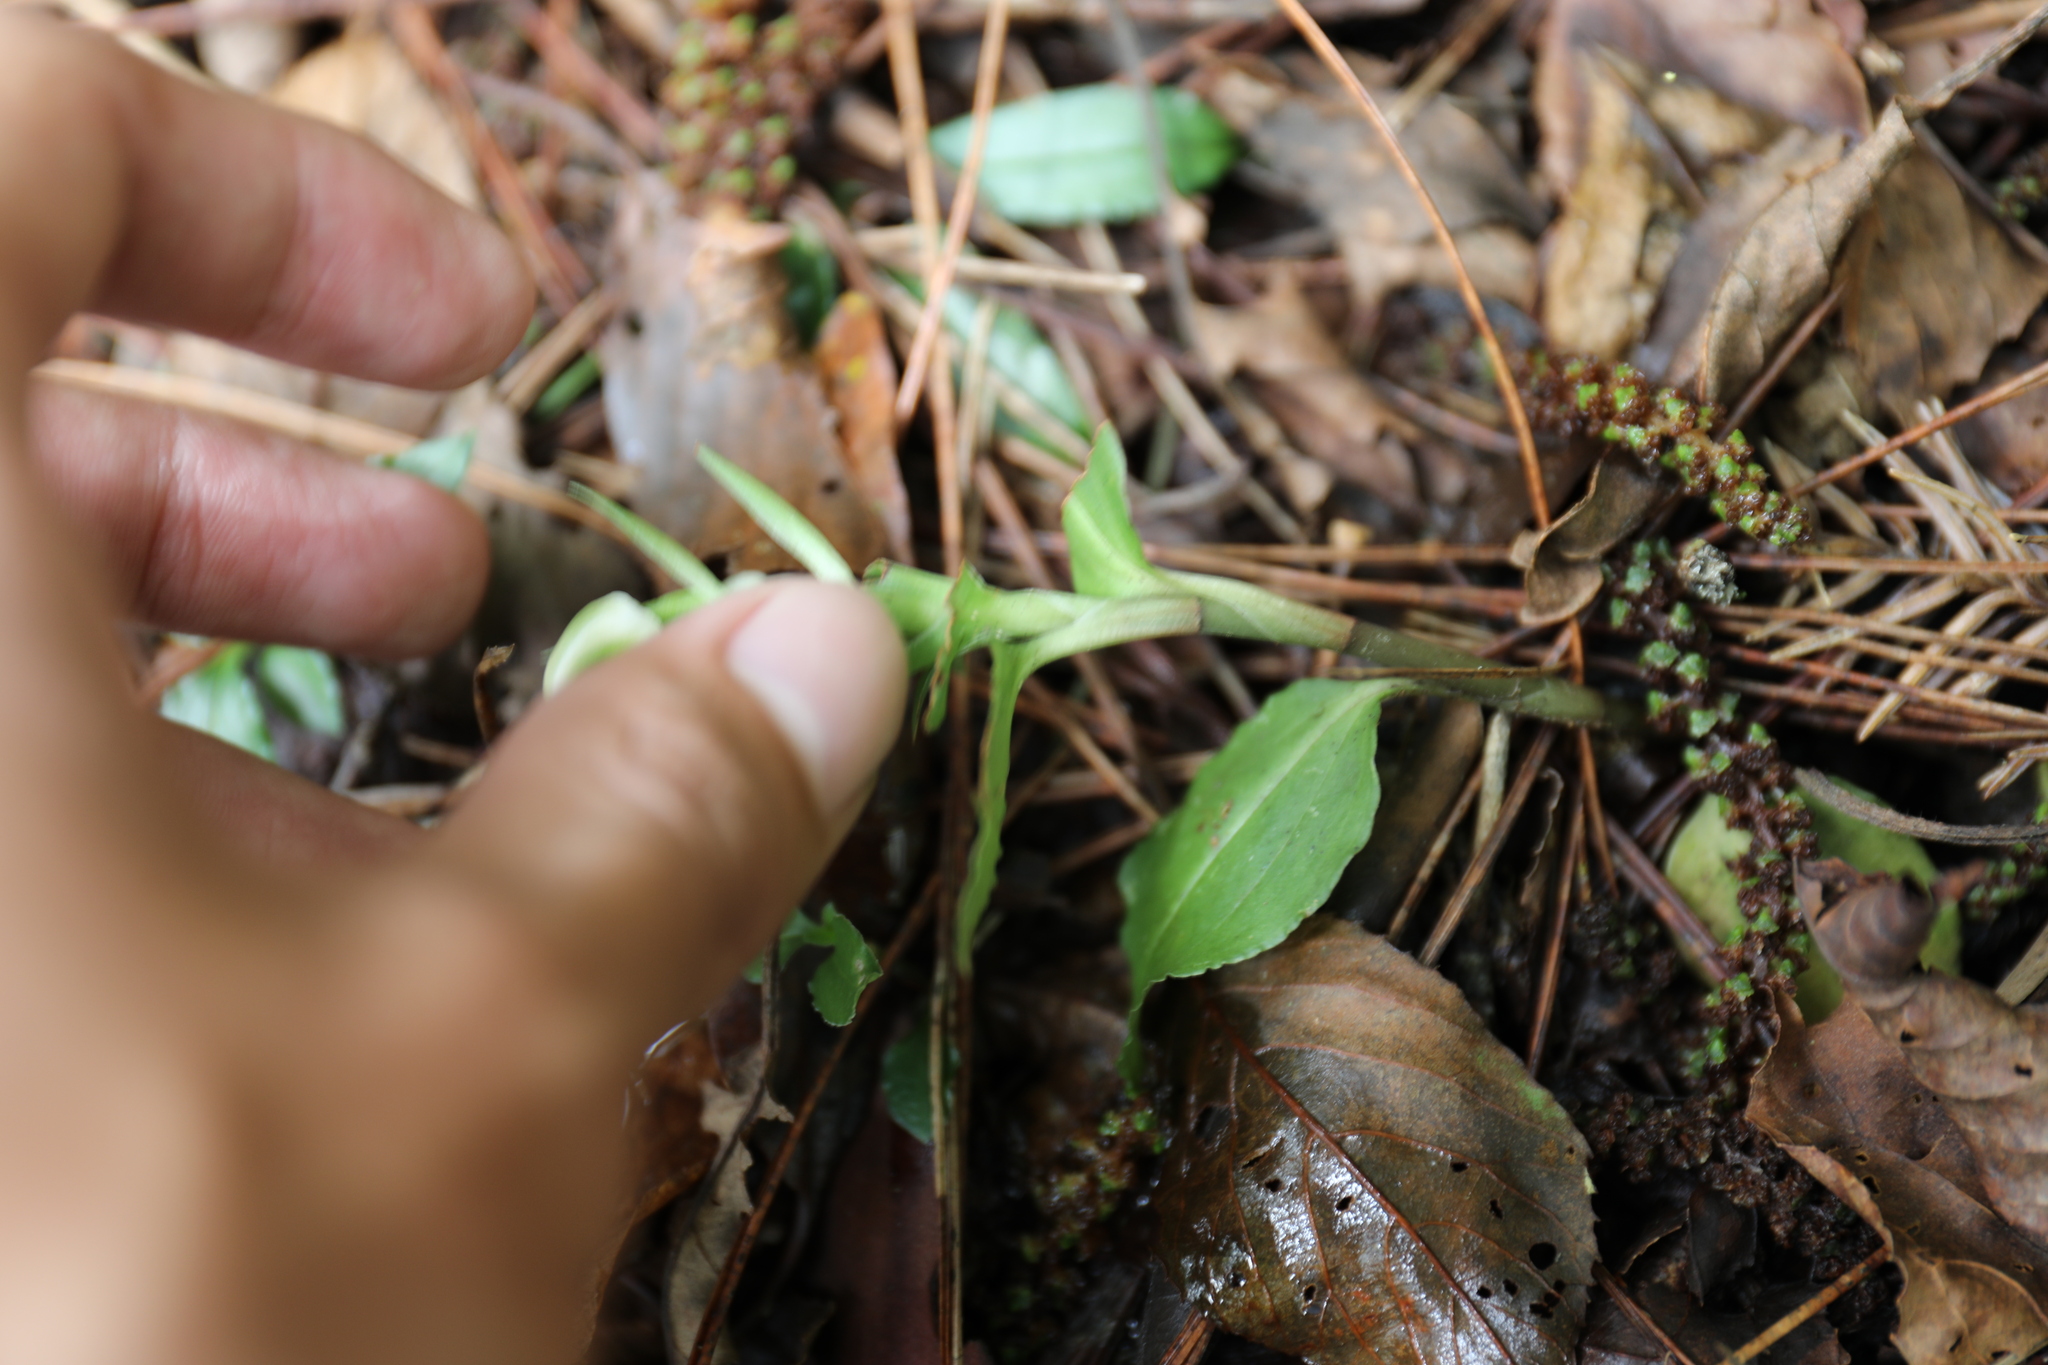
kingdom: Plantae
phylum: Tracheophyta
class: Liliopsida
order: Asparagales
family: Orchidaceae
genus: Goodyera
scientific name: Goodyera henryi
